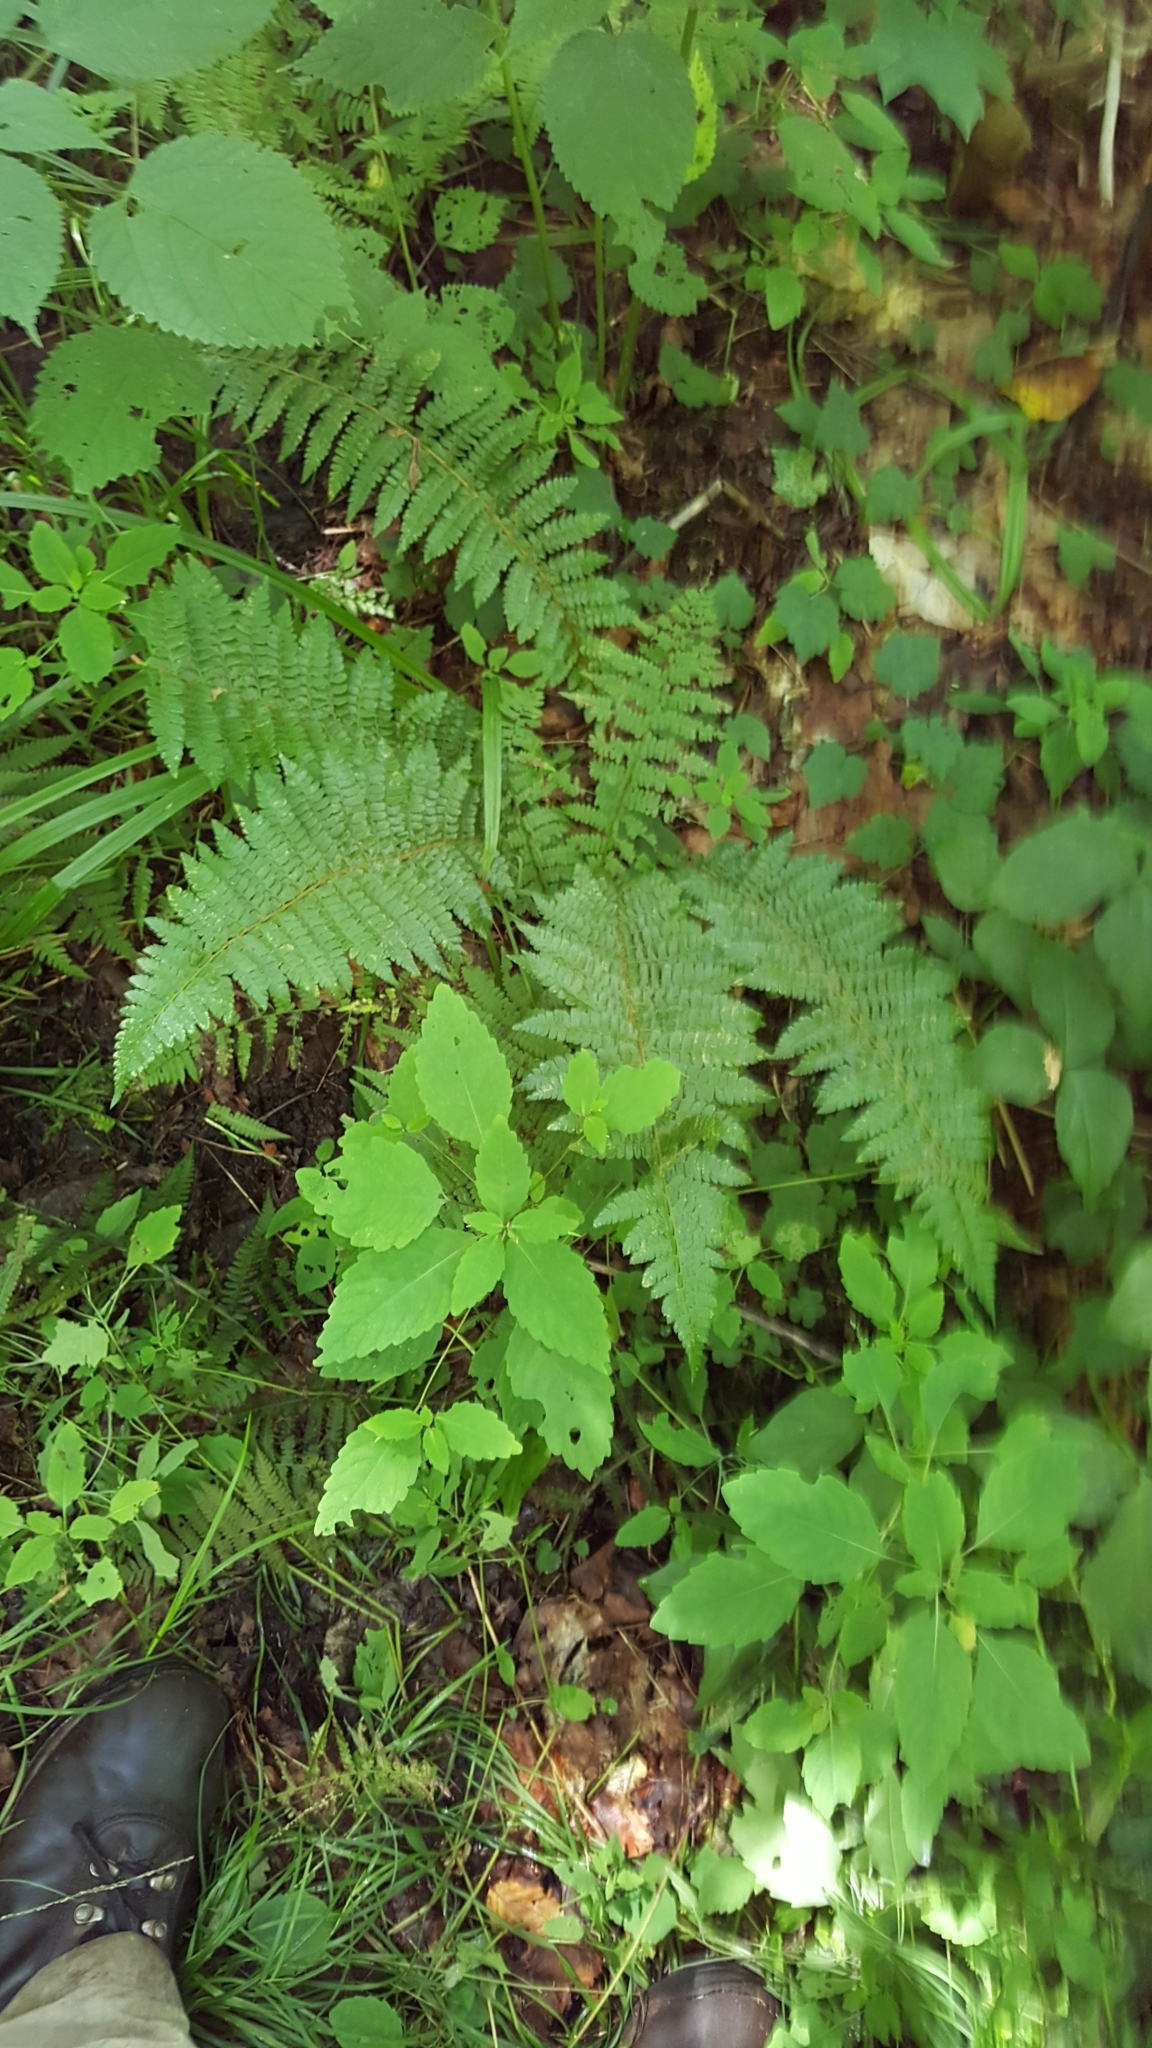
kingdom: Plantae
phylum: Tracheophyta
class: Polypodiopsida
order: Polypodiales
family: Dryopteridaceae
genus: Polystichum
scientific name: Polystichum braunii
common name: Braun's holly fern
